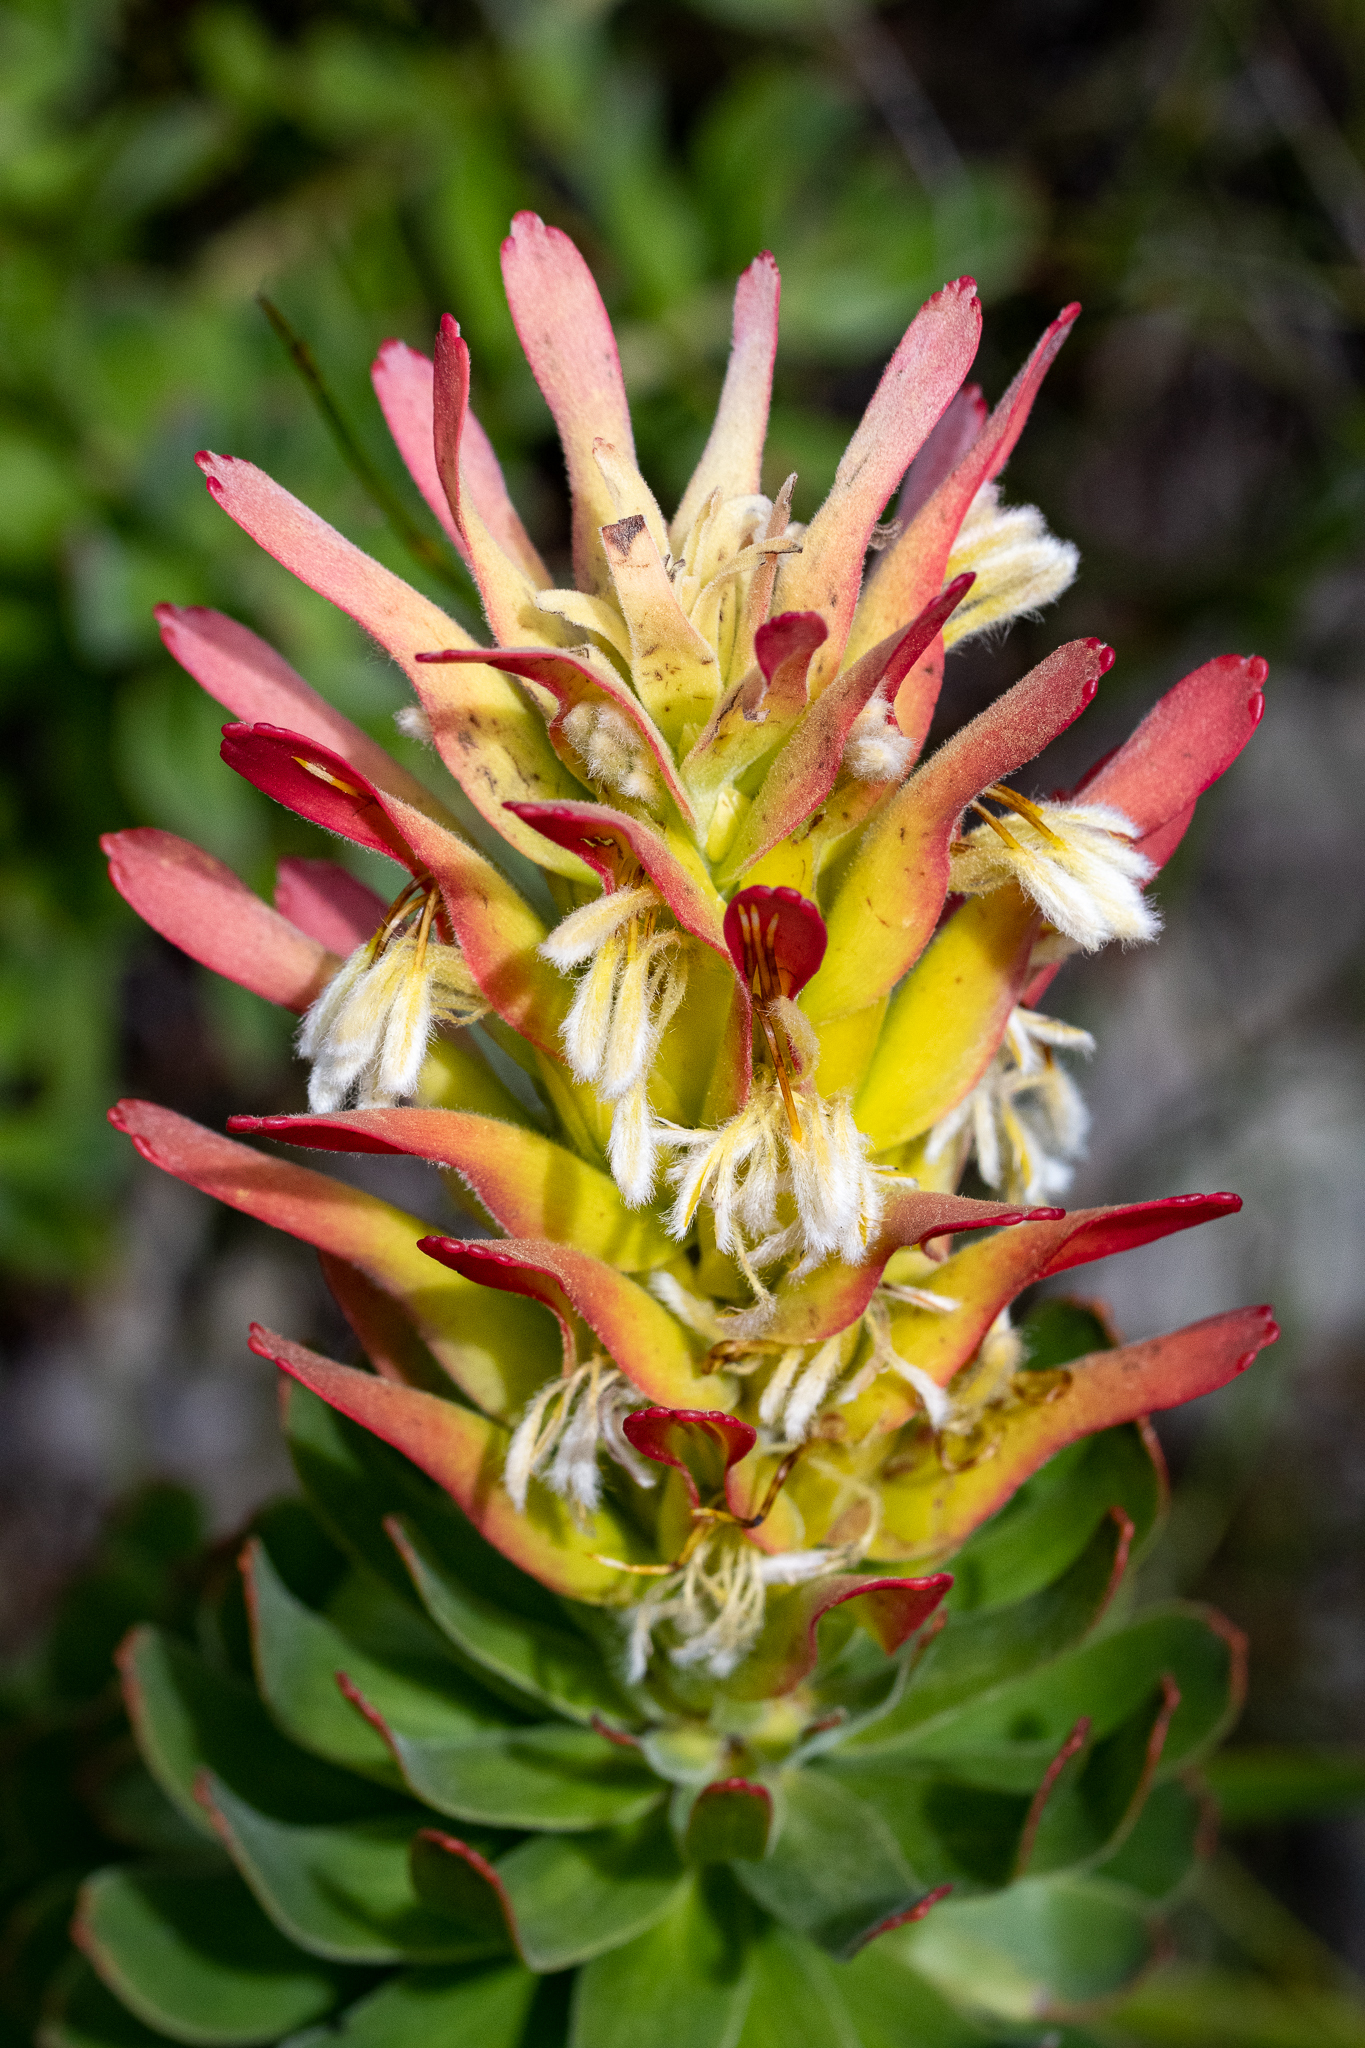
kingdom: Plantae
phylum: Tracheophyta
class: Magnoliopsida
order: Proteales
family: Proteaceae
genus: Mimetes
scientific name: Mimetes cucullatus
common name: Common pagoda
